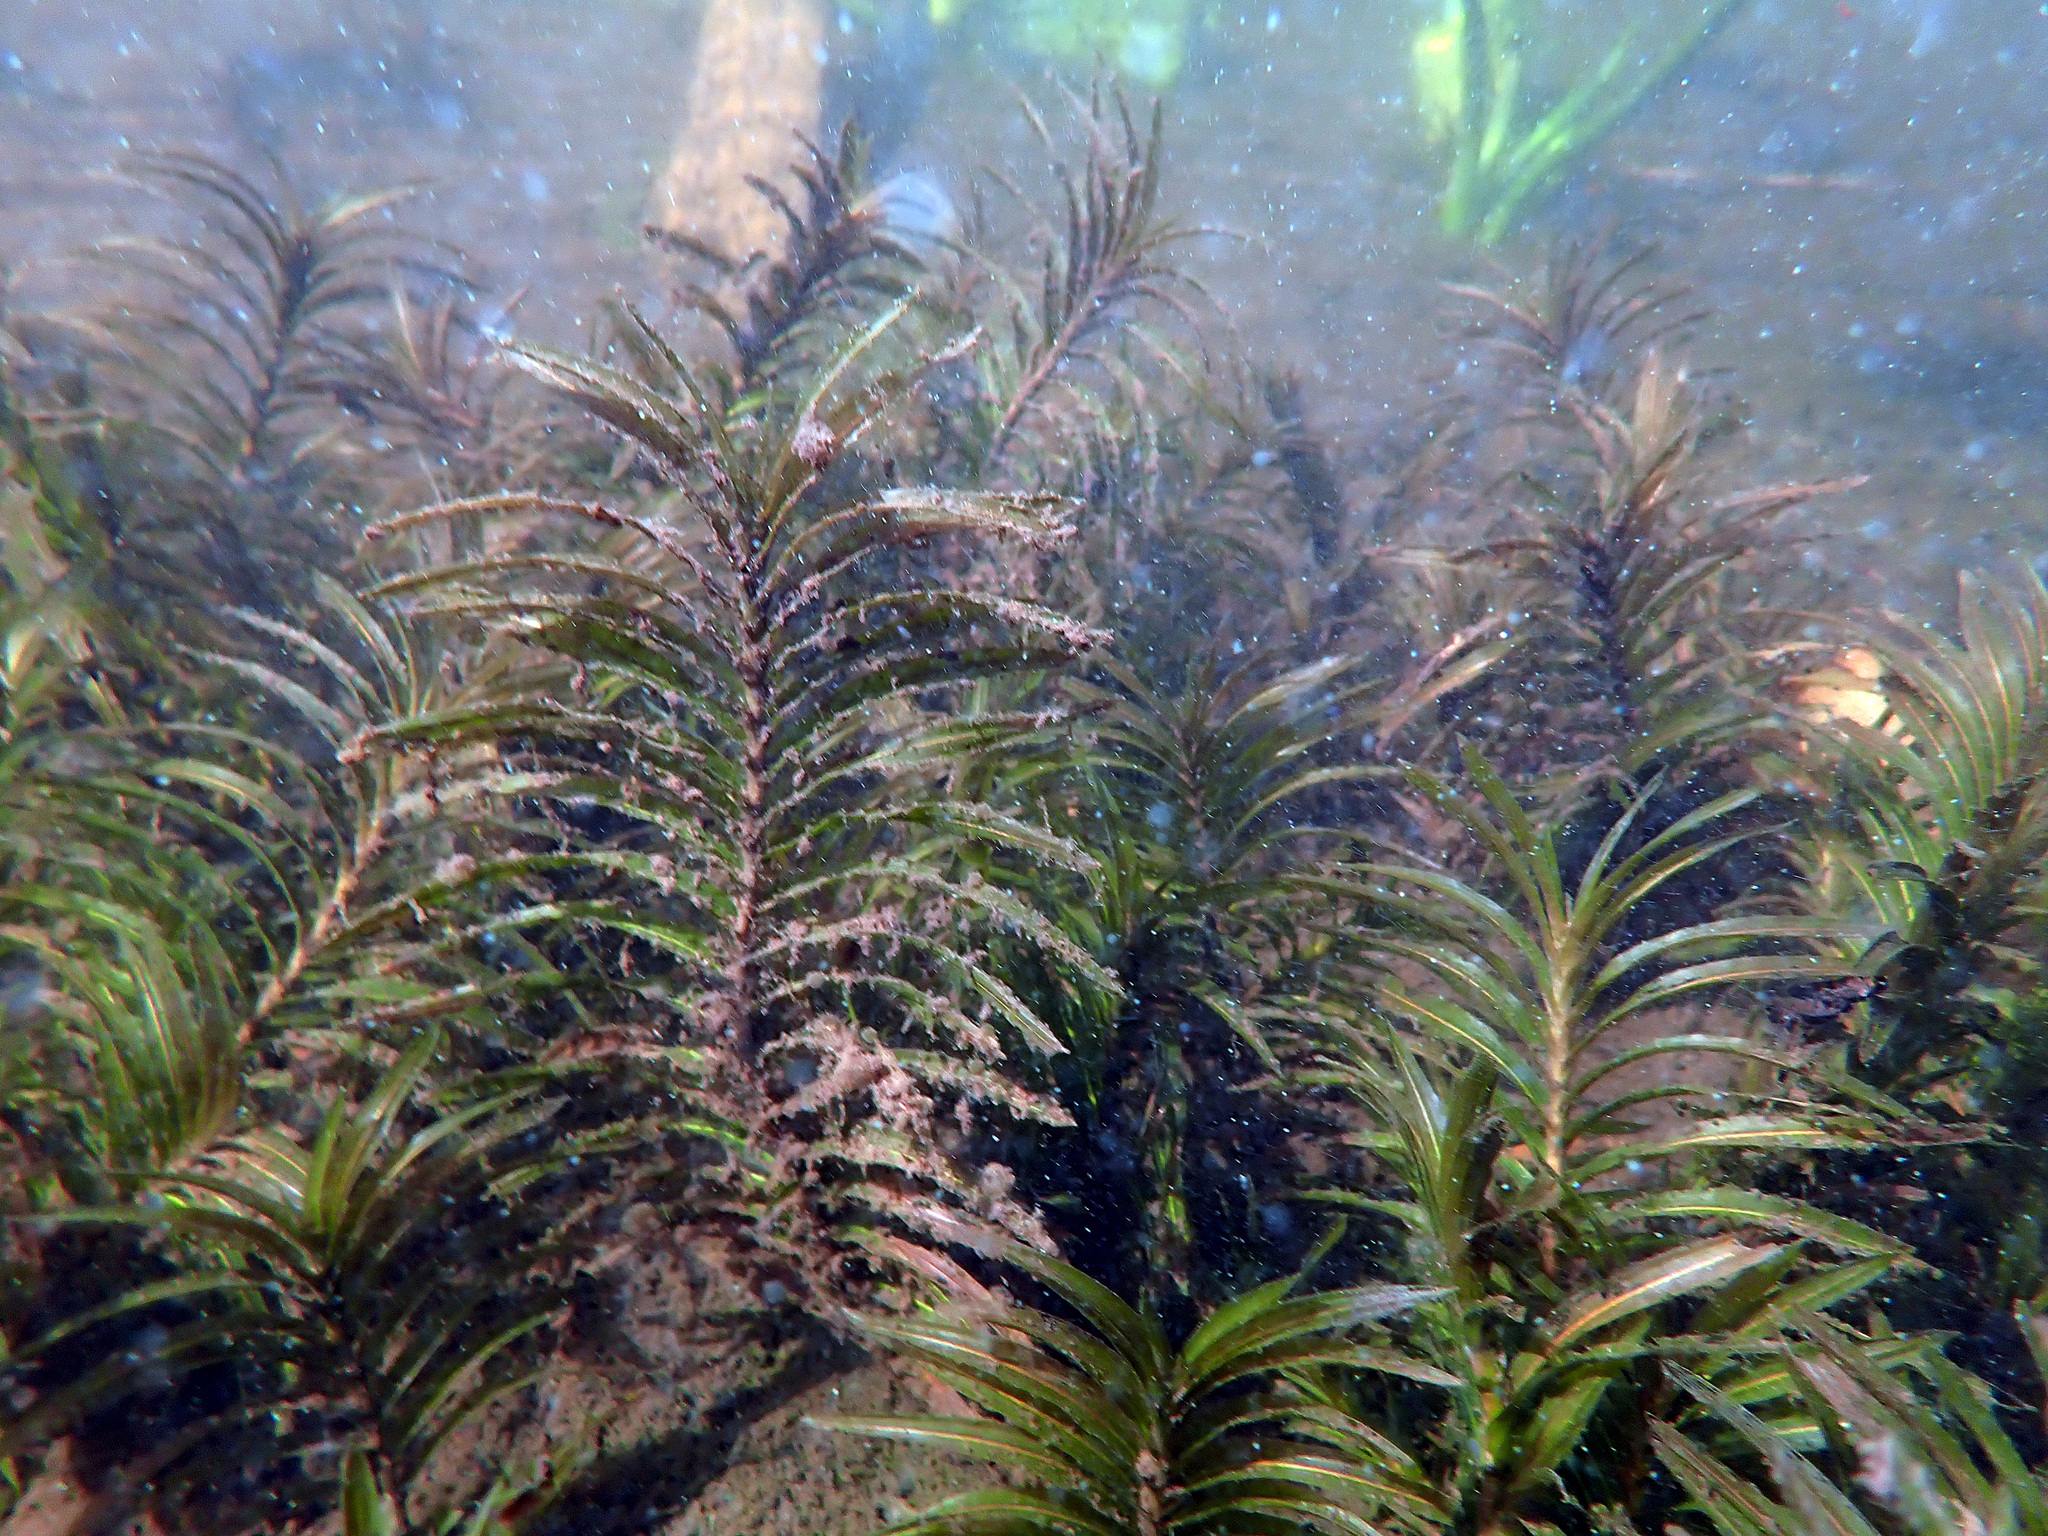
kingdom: Plantae
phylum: Tracheophyta
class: Liliopsida
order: Alismatales
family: Potamogetonaceae
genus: Potamogeton
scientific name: Potamogeton robbinsii
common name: Fern pondweed
